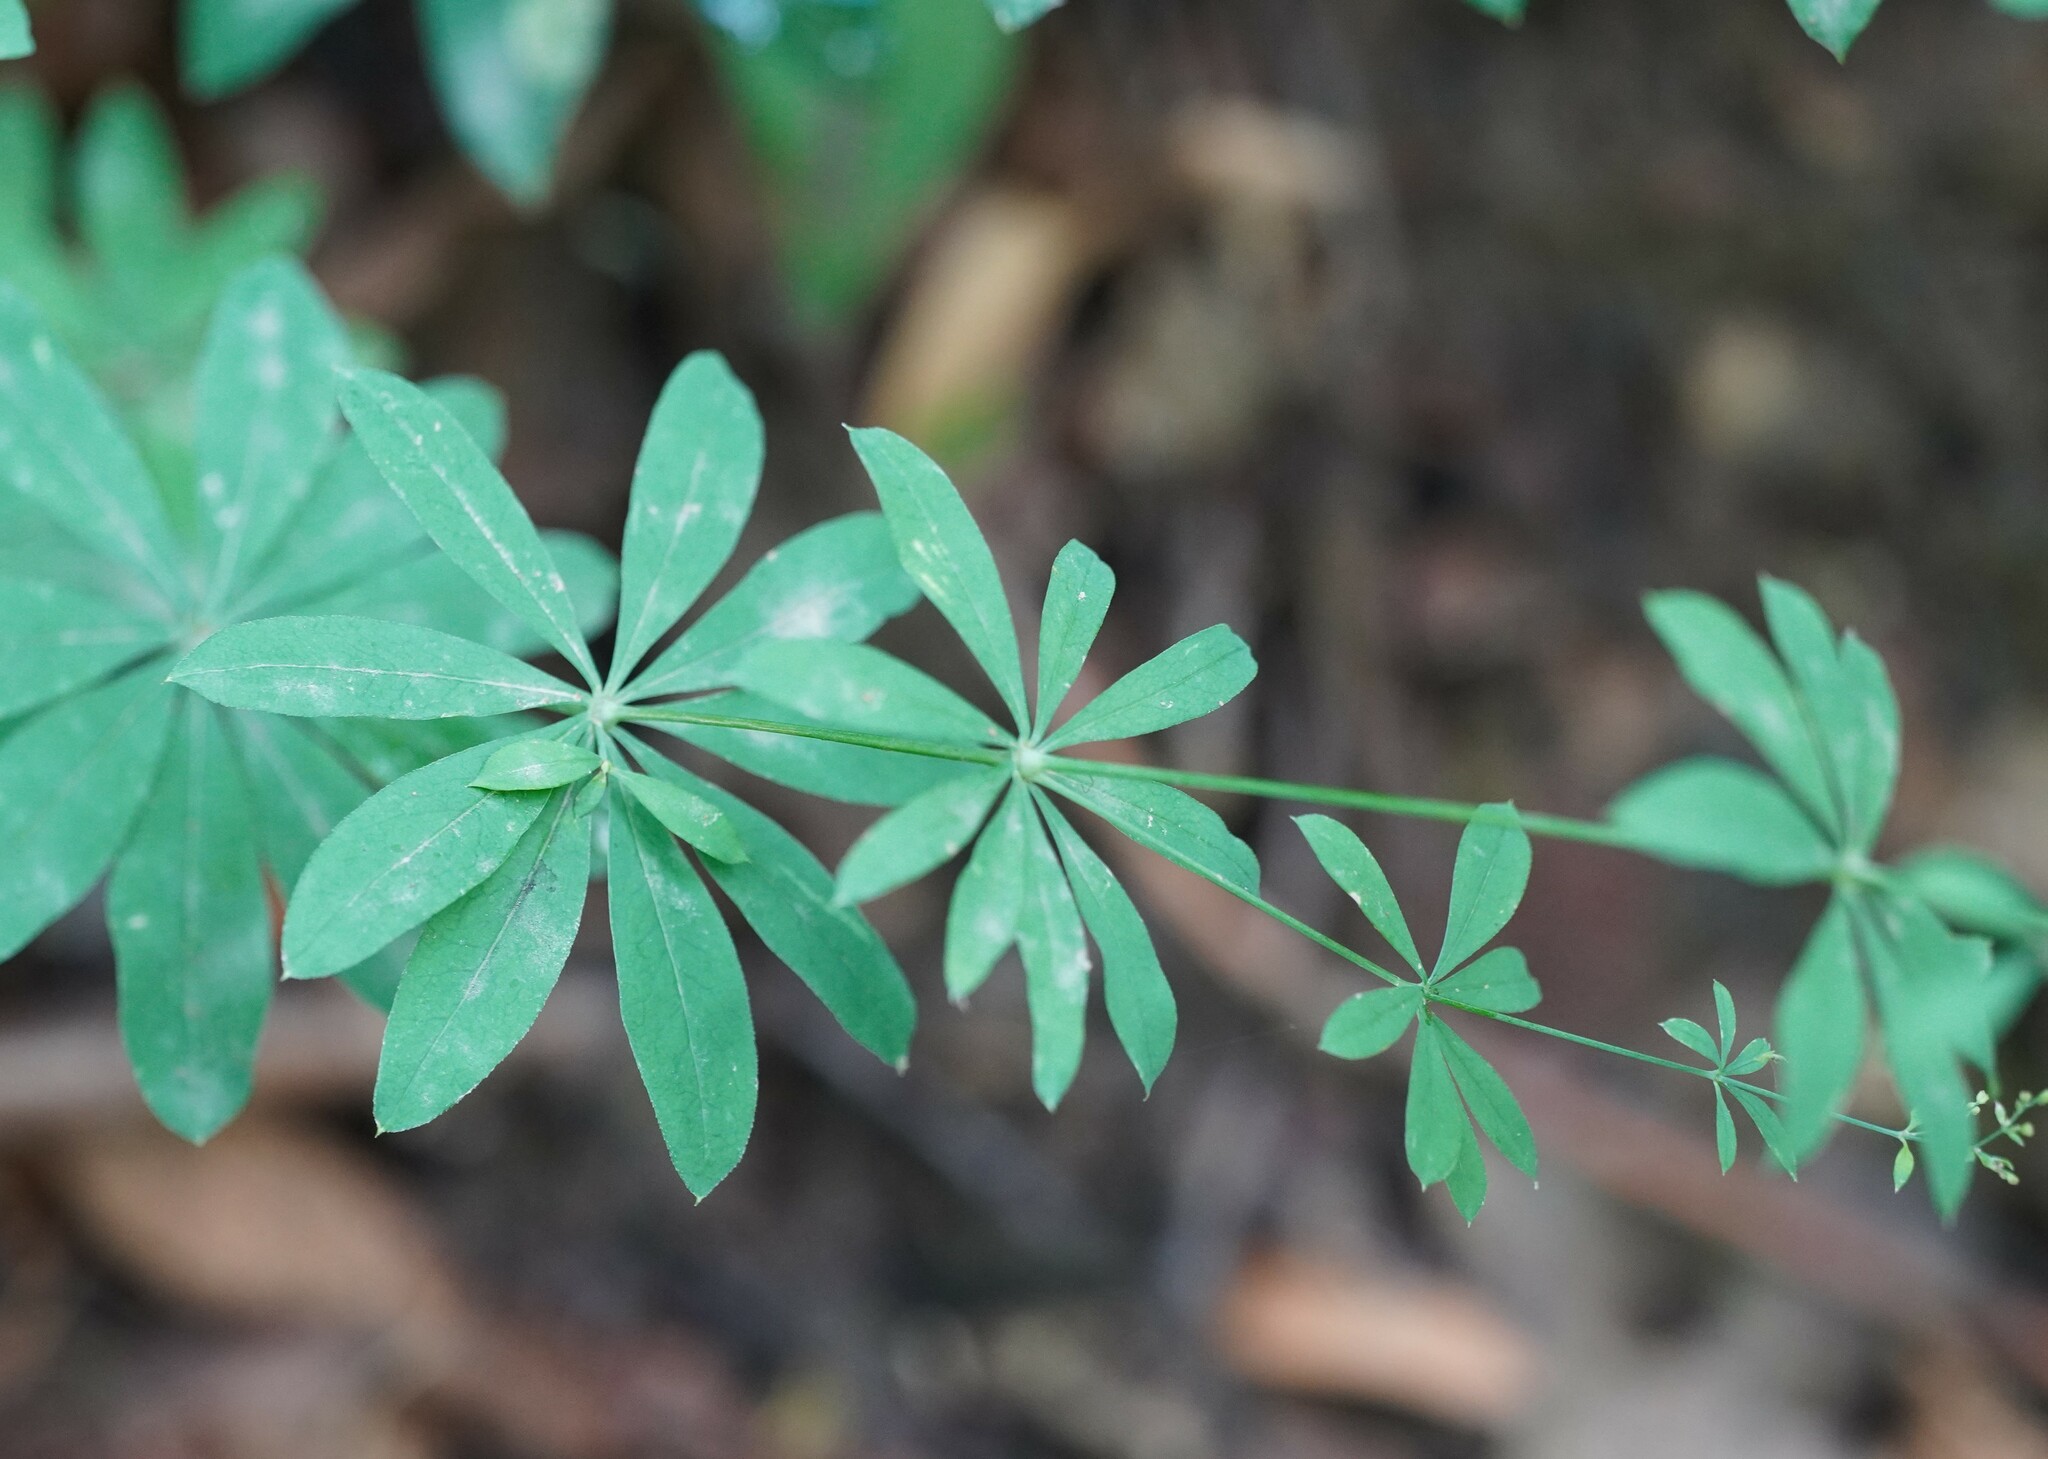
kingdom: Plantae
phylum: Tracheophyta
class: Magnoliopsida
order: Gentianales
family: Rubiaceae
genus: Galium
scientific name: Galium sylvaticum
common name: Wood bedstraw
